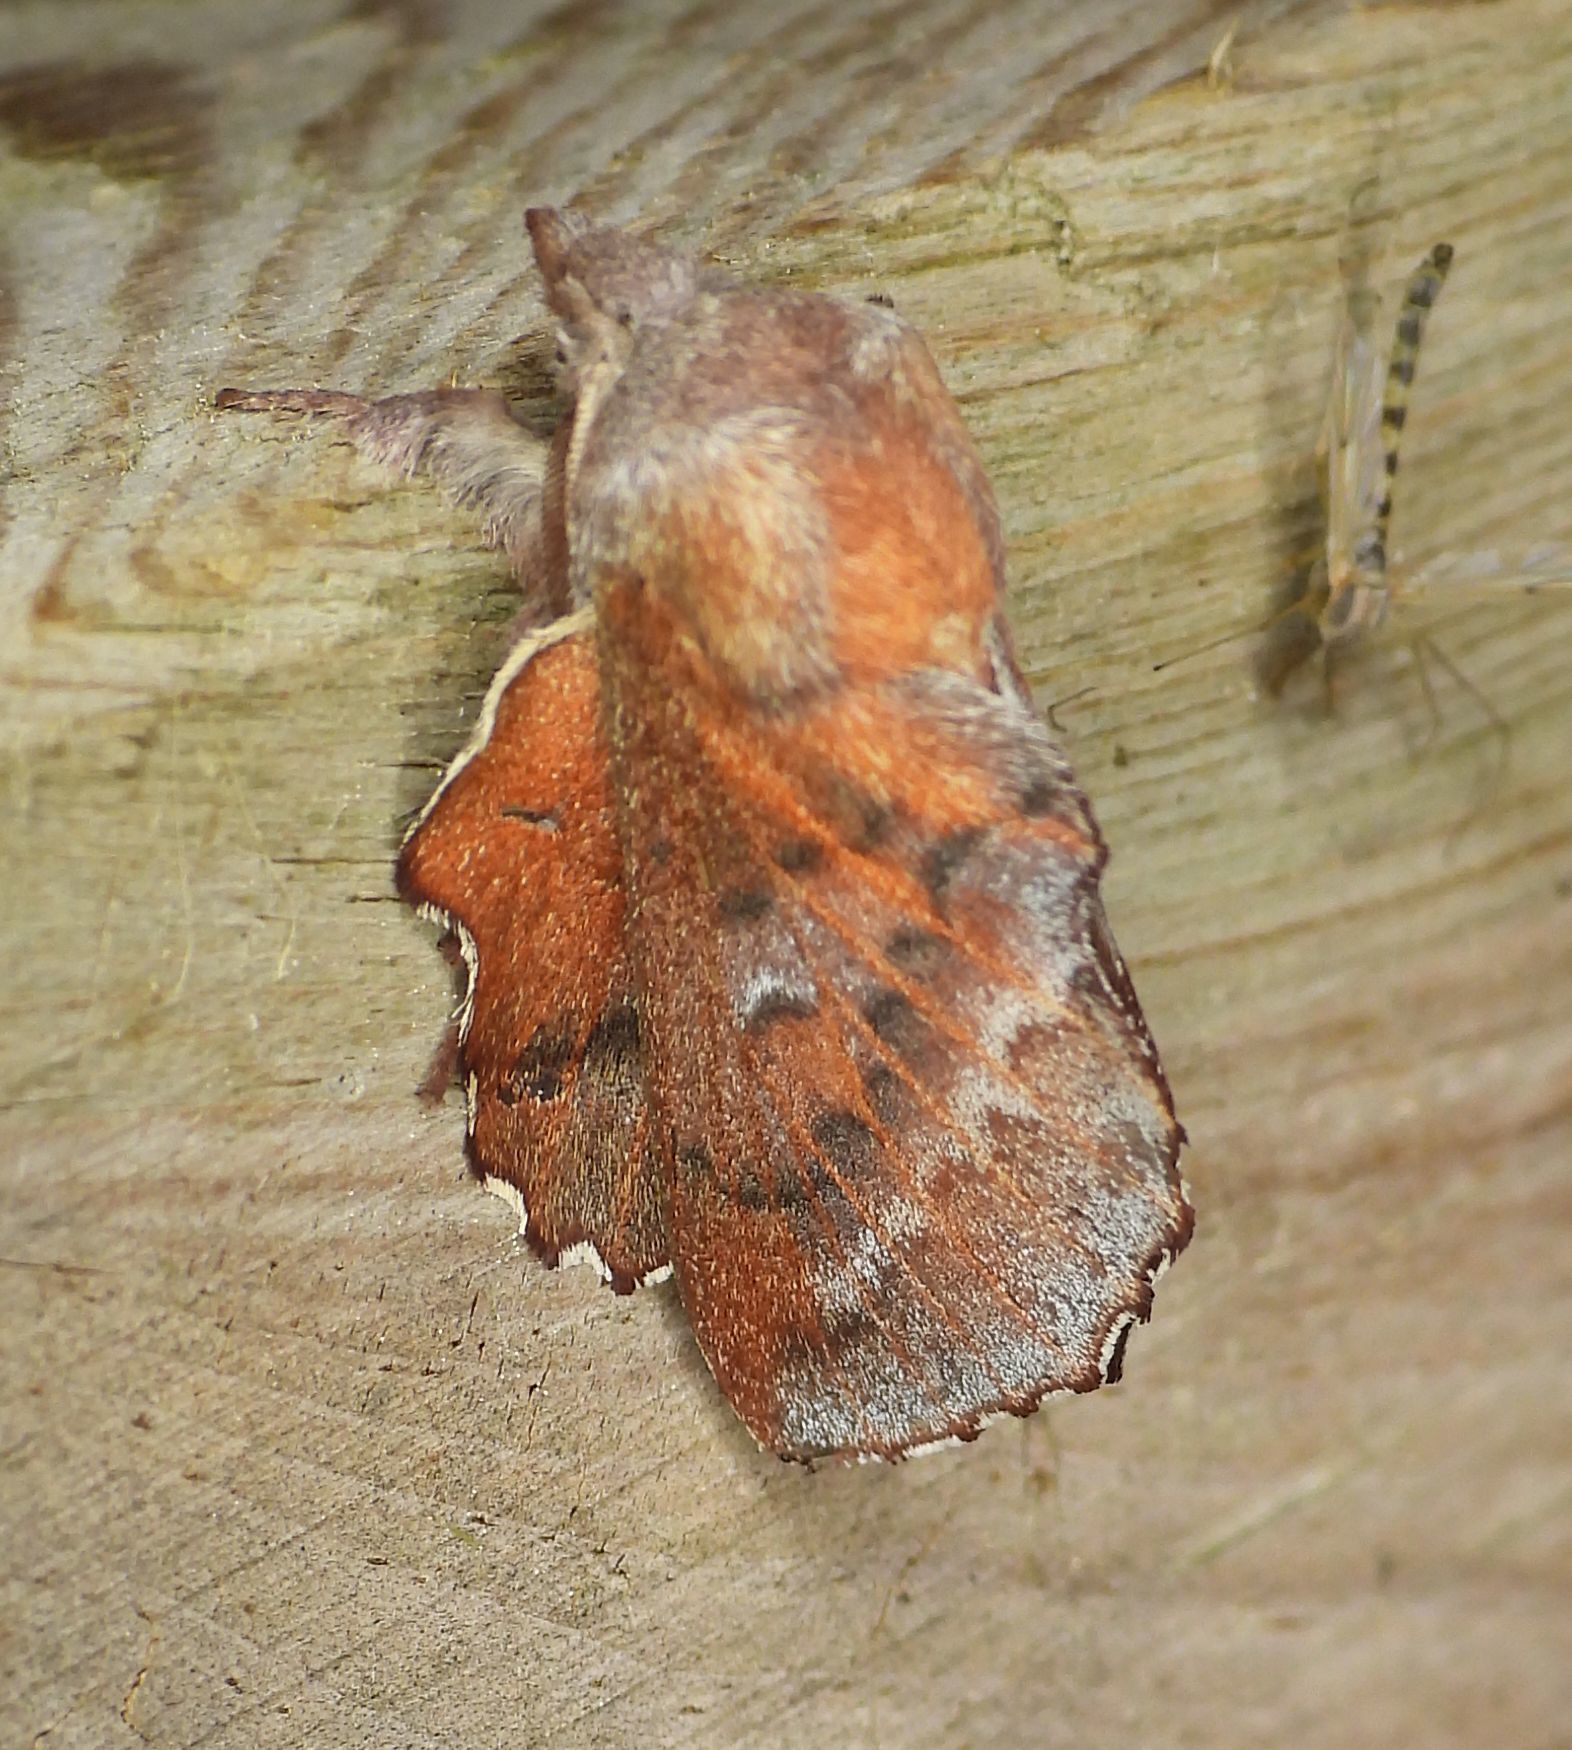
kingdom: Animalia
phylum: Arthropoda
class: Insecta
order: Lepidoptera
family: Lasiocampidae
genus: Phyllodesma
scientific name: Phyllodesma americana
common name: American lappet moth
